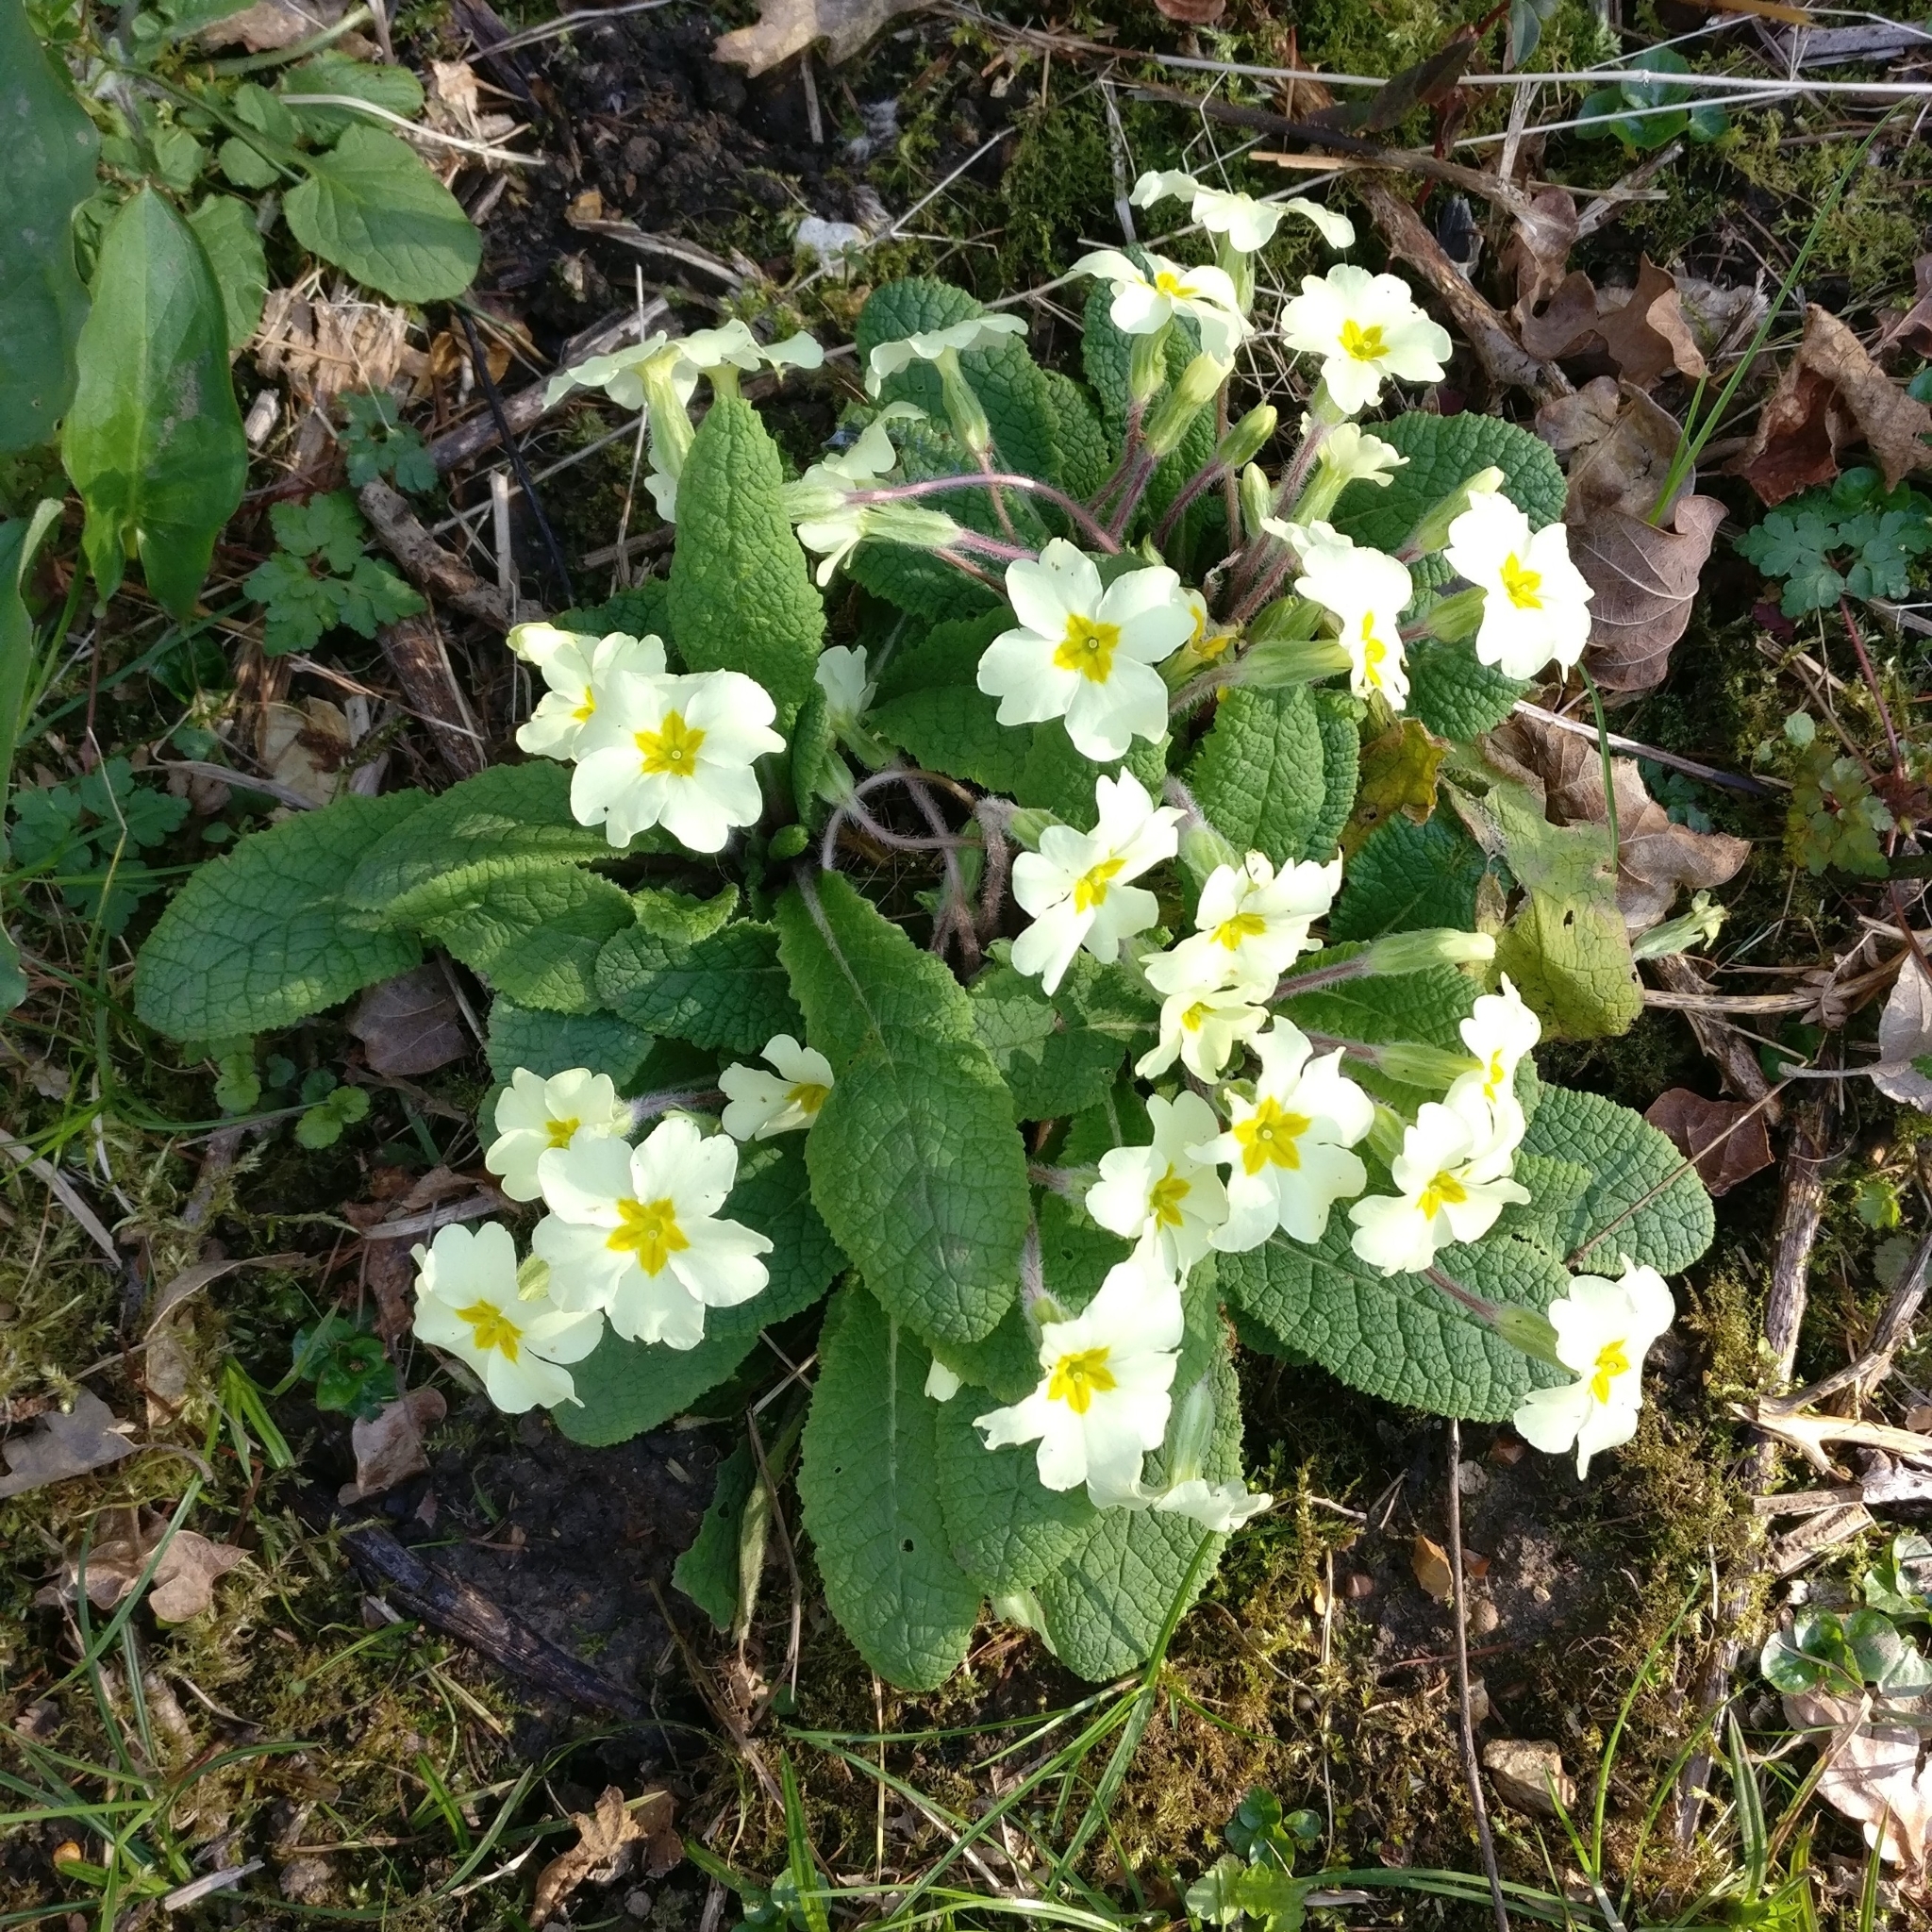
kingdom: Plantae
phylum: Tracheophyta
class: Magnoliopsida
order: Ericales
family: Primulaceae
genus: Primula
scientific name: Primula vulgaris
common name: Primrose
